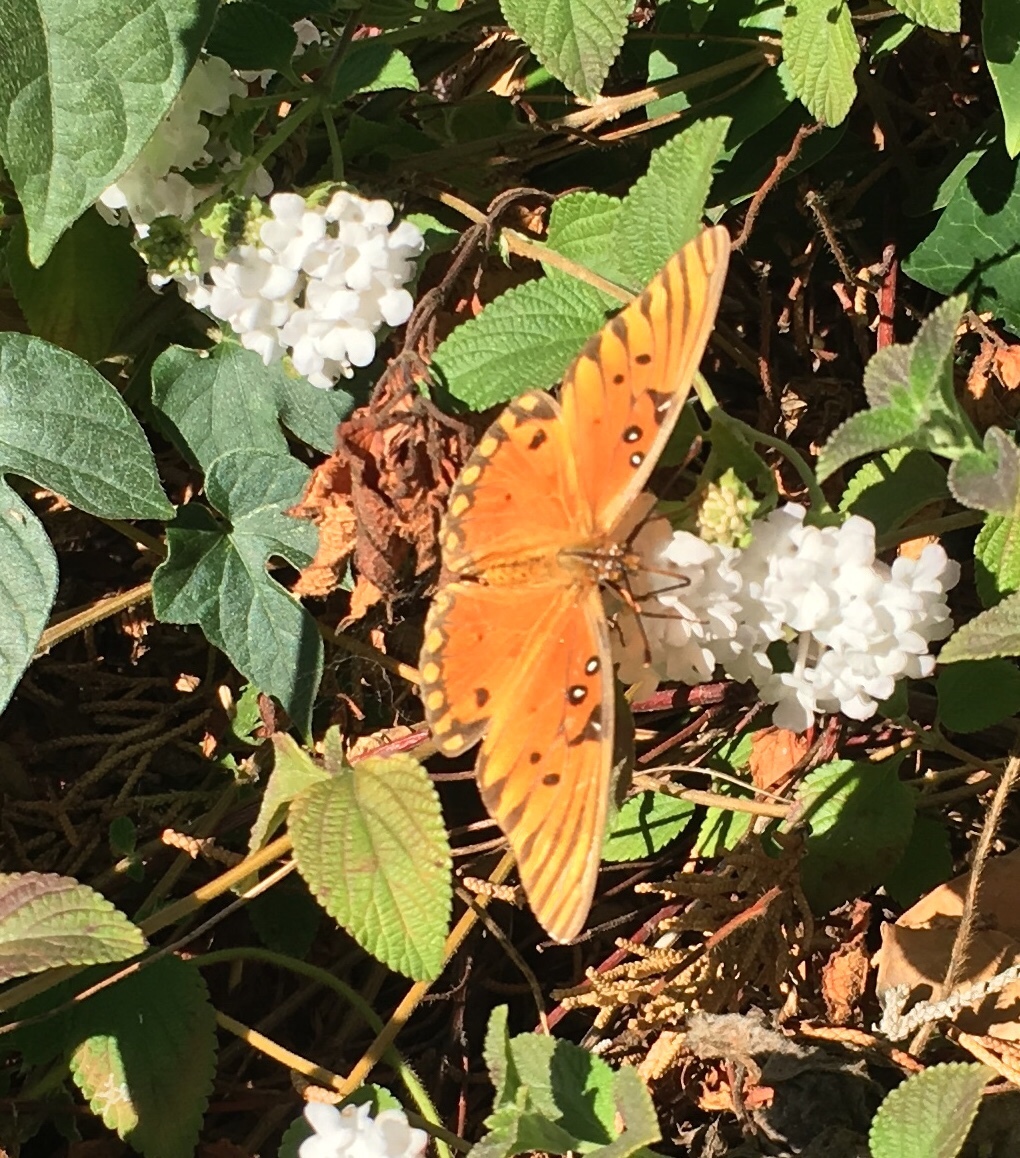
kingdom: Animalia
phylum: Arthropoda
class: Insecta
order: Lepidoptera
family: Nymphalidae
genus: Dione
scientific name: Dione vanillae
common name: Gulf fritillary
